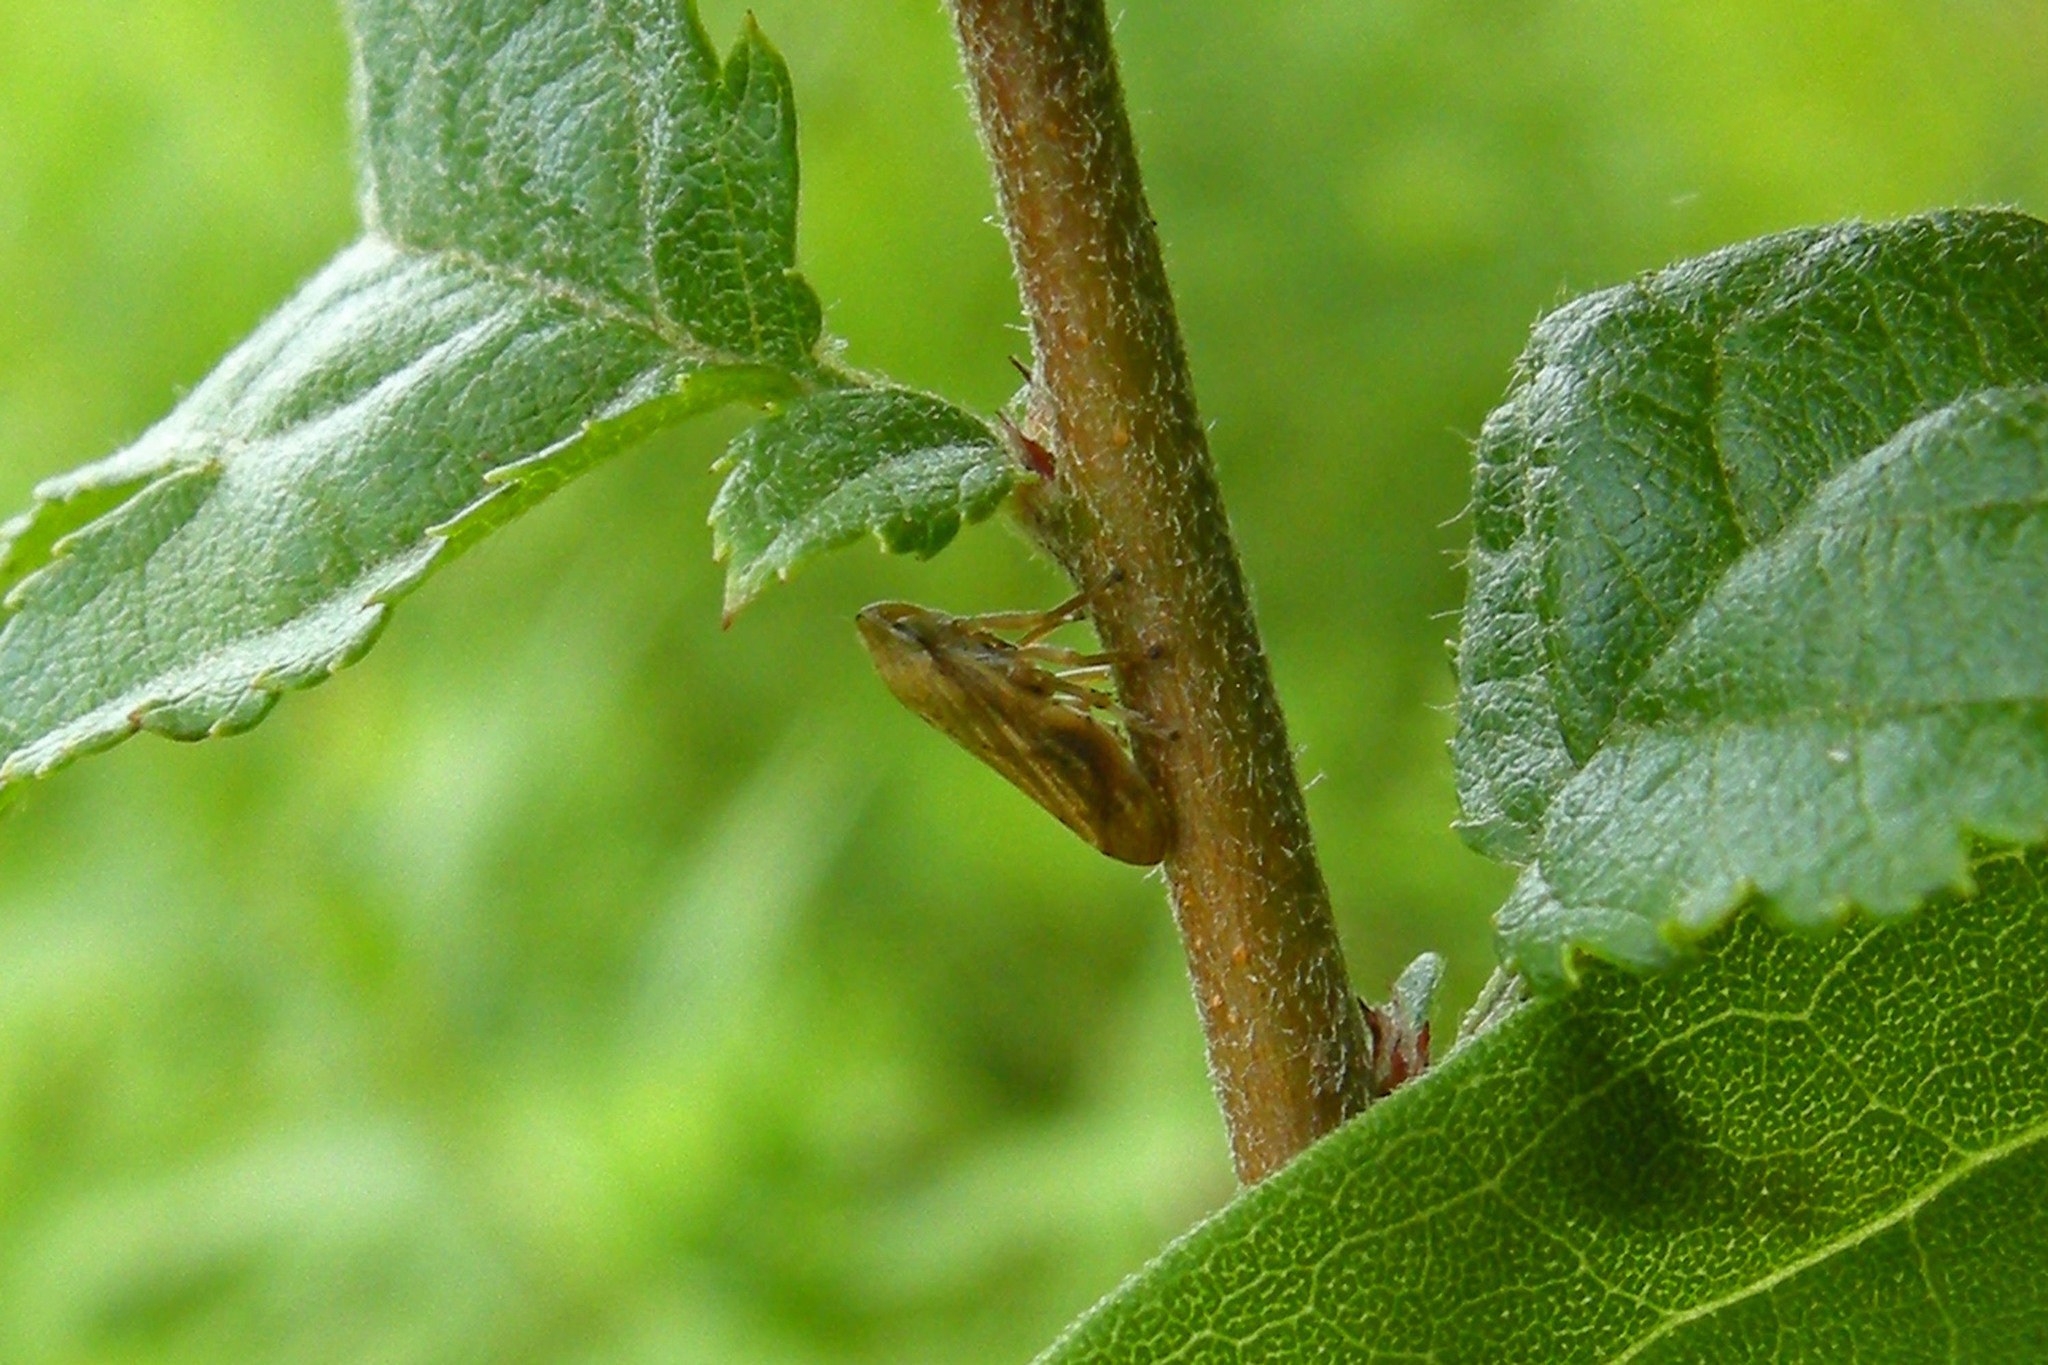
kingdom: Animalia
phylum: Arthropoda
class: Insecta
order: Hemiptera
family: Aphrophoridae
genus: Philaenus
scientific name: Philaenus spumarius
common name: Meadow spittlebug
